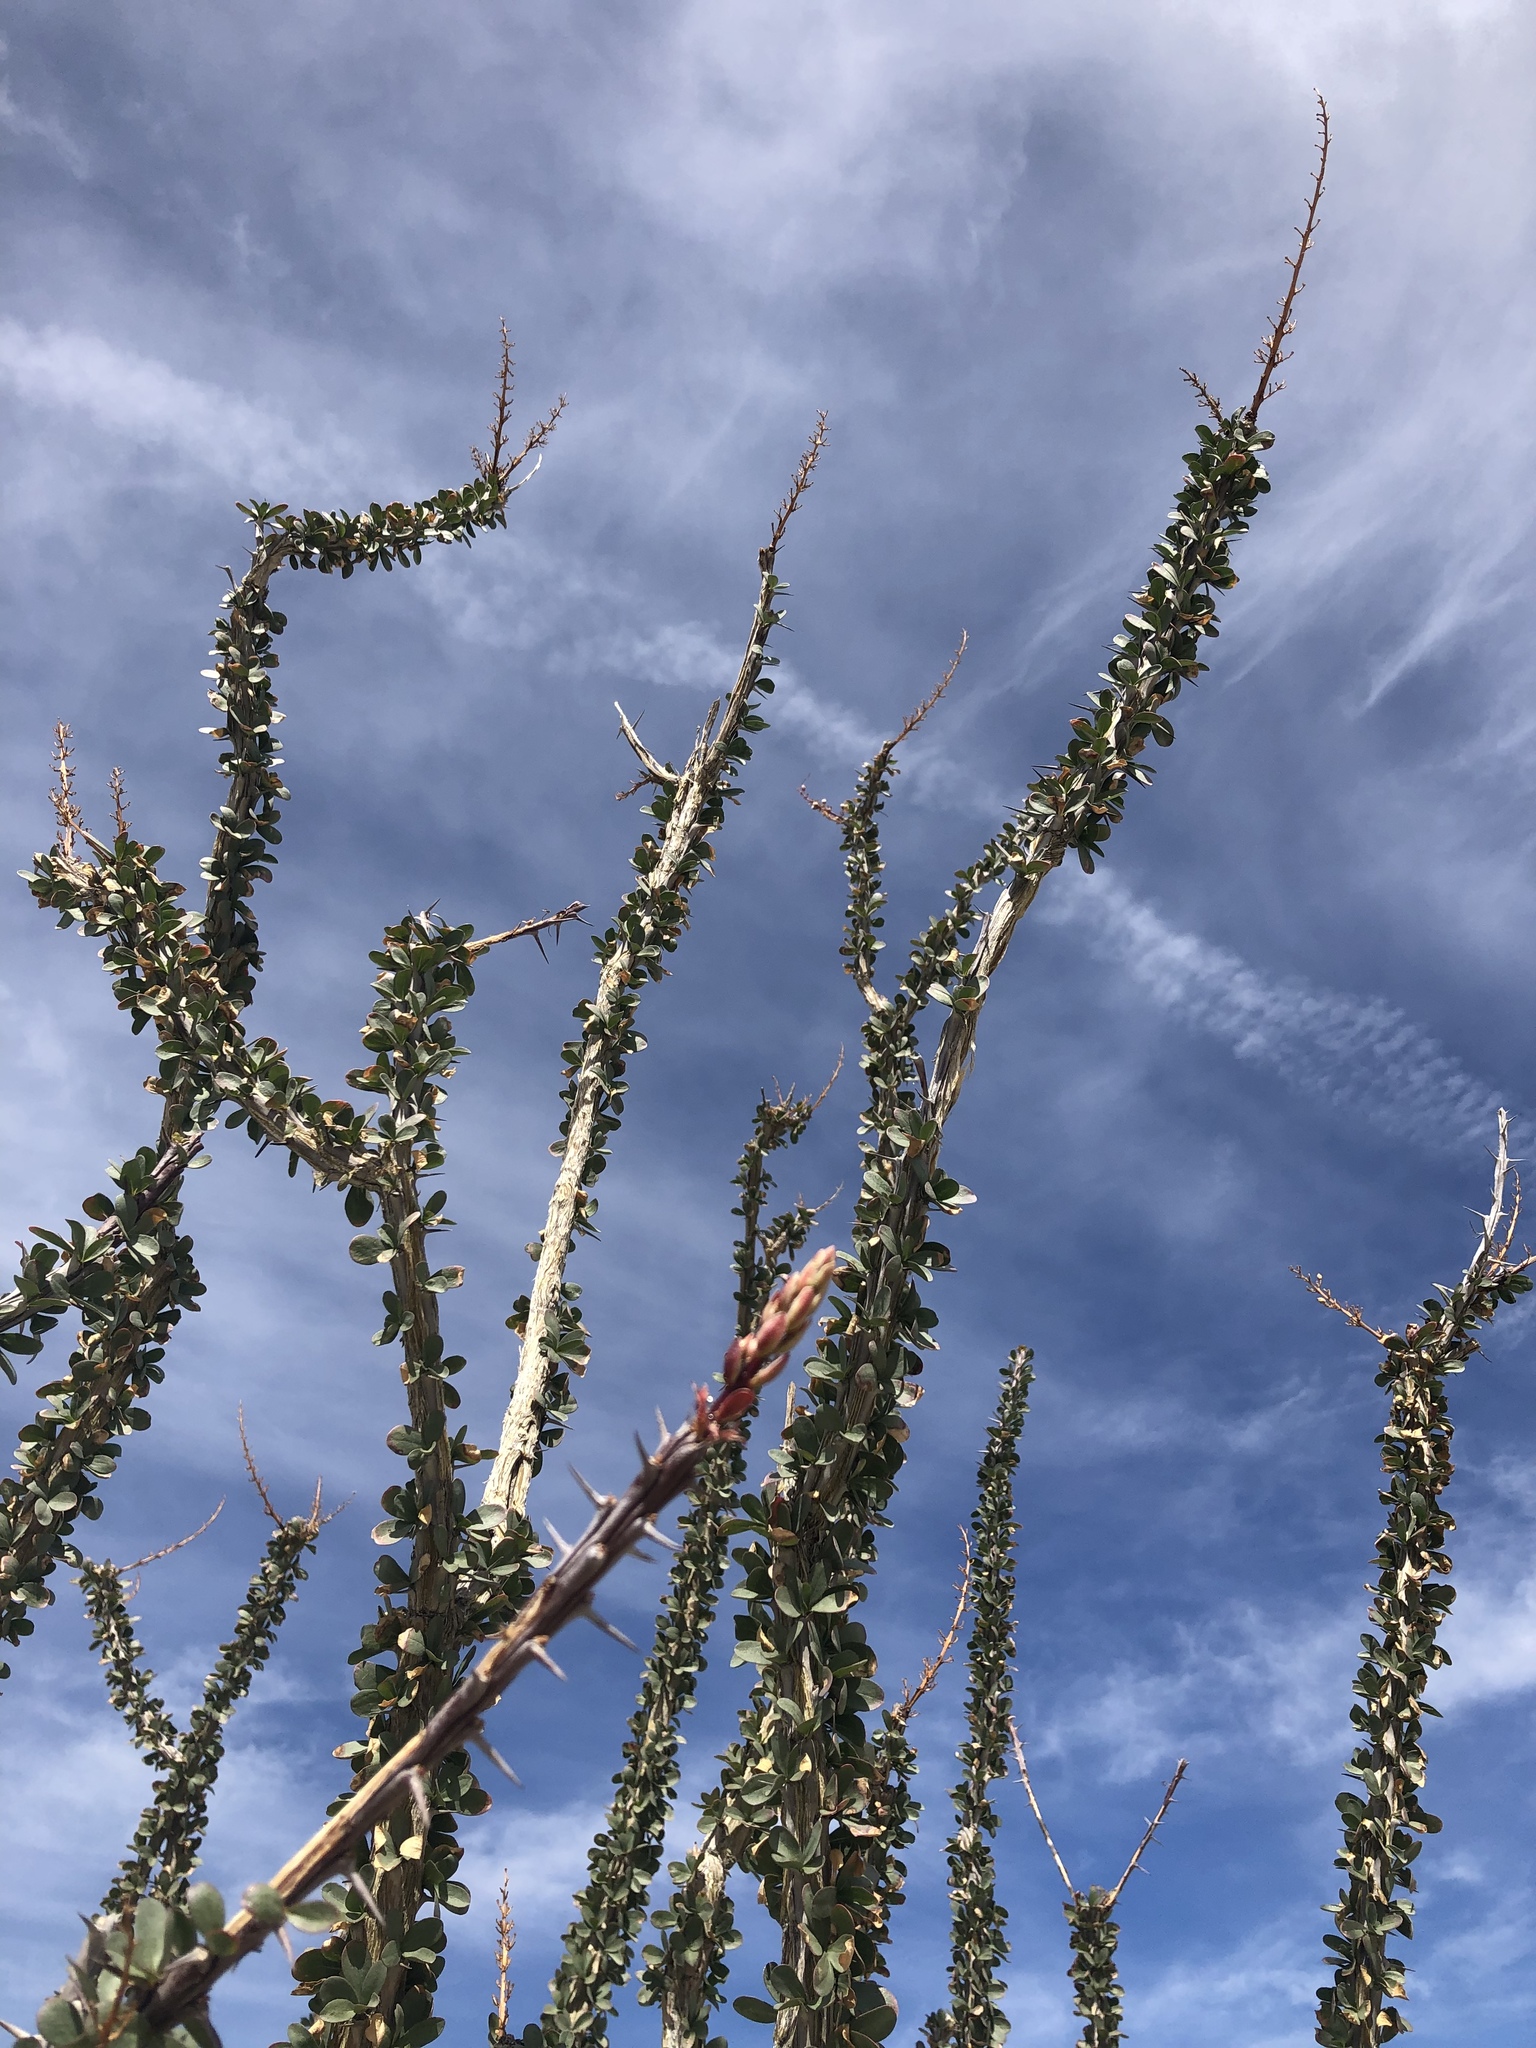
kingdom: Plantae
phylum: Tracheophyta
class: Magnoliopsida
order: Ericales
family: Fouquieriaceae
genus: Fouquieria
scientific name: Fouquieria splendens
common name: Vine-cactus
